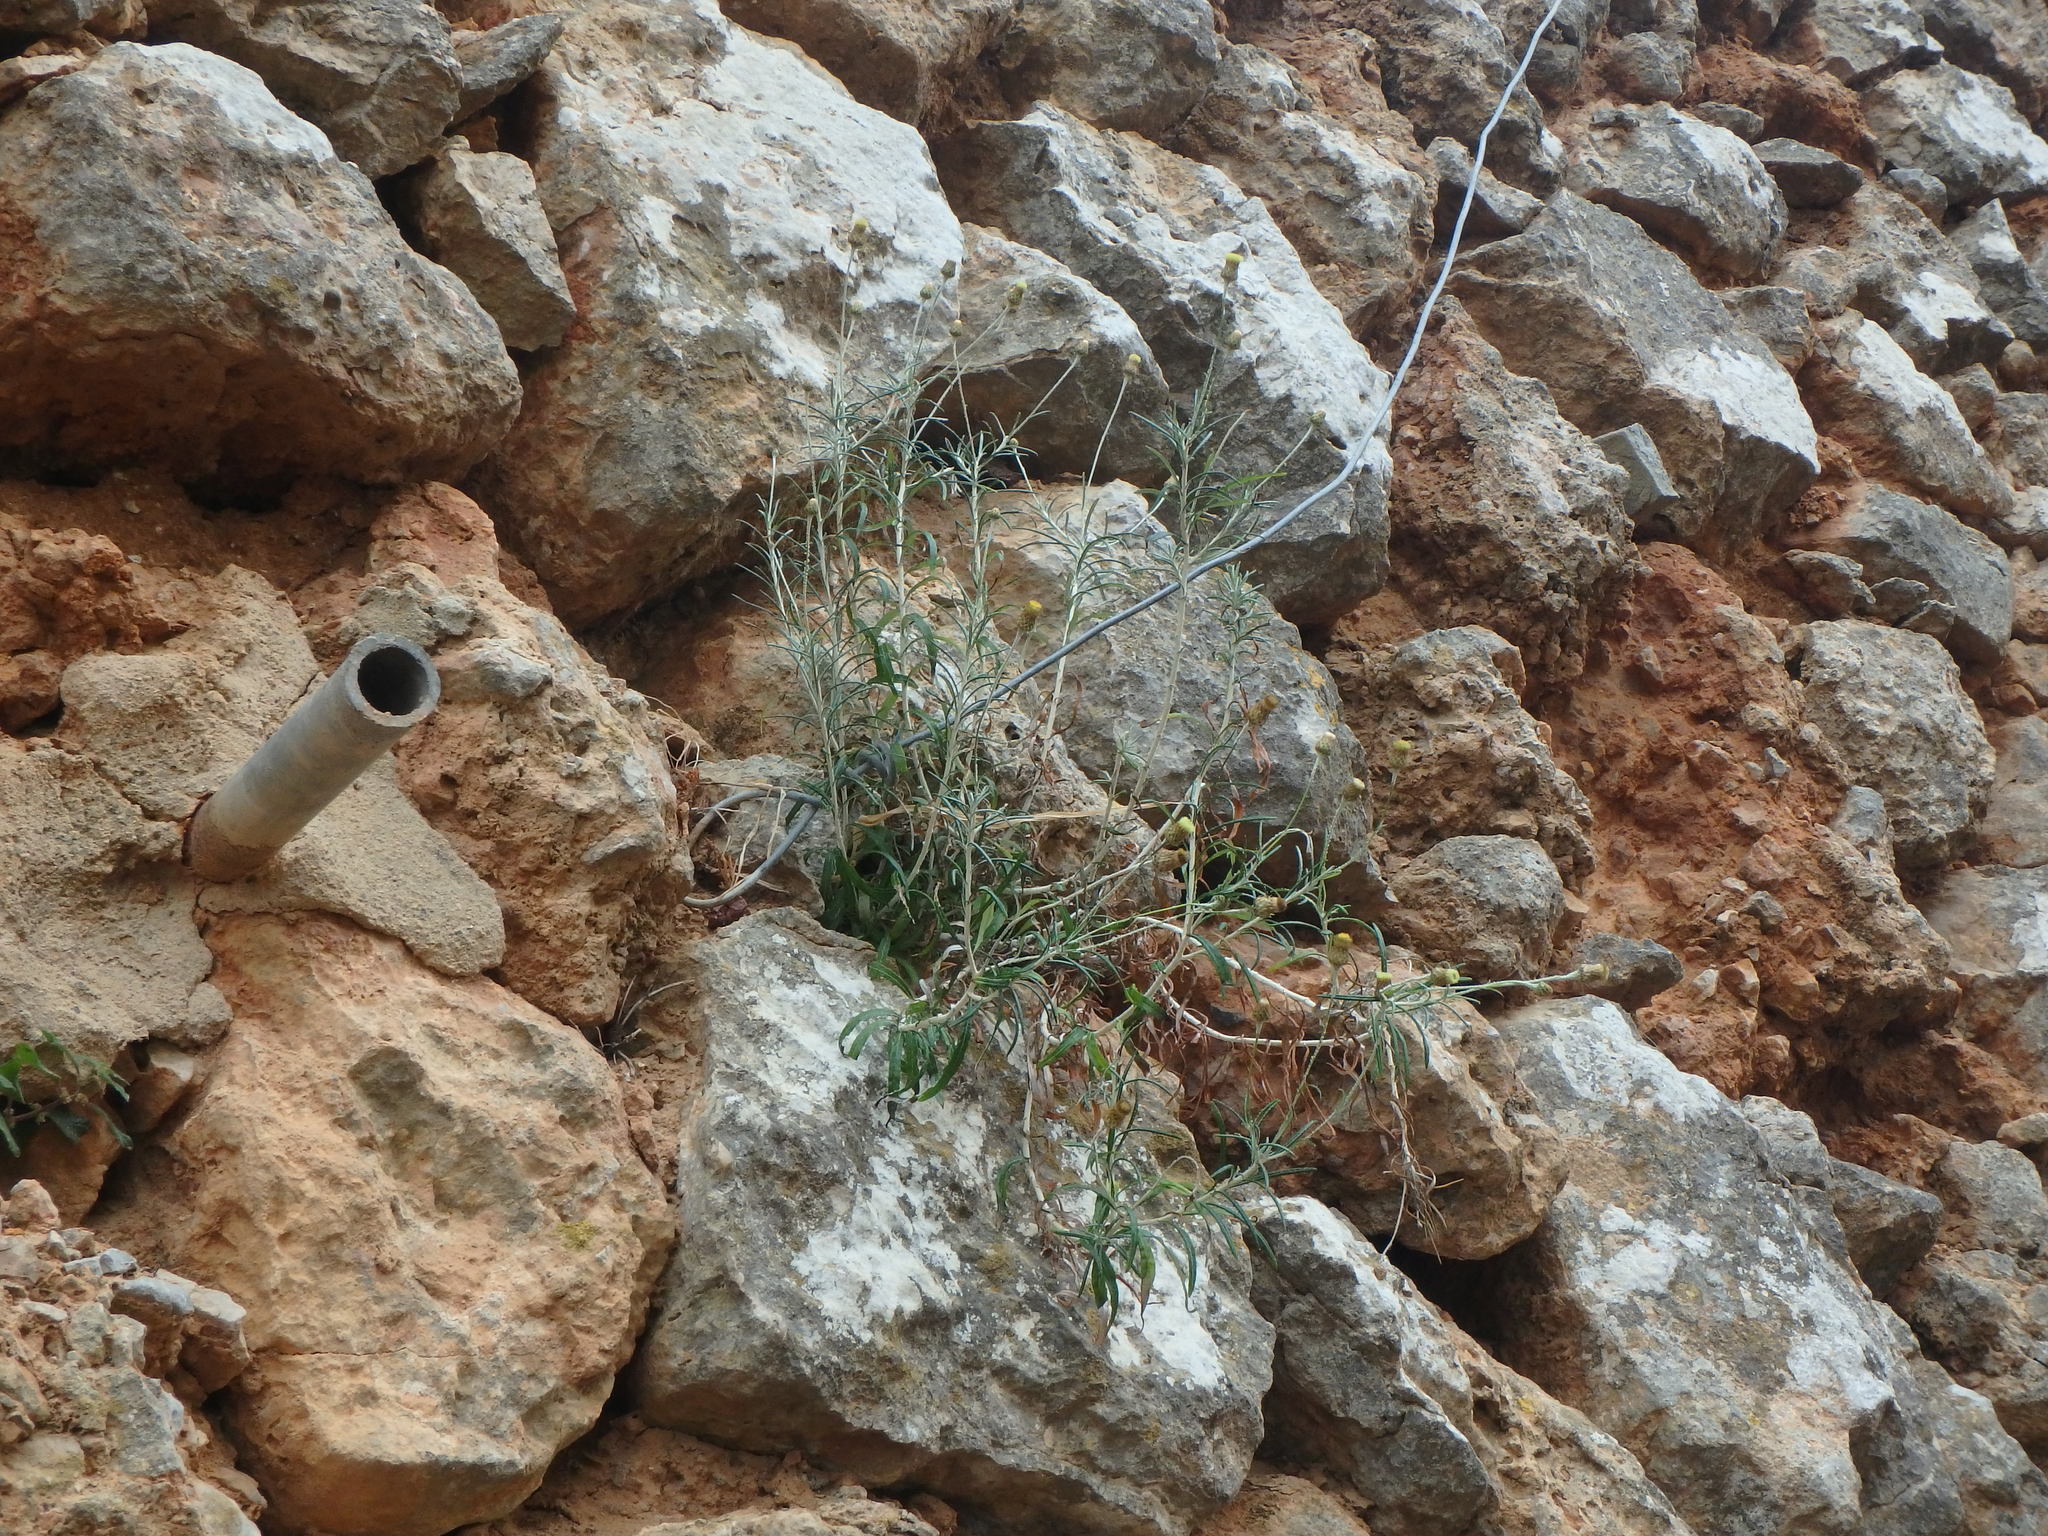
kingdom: Plantae
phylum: Tracheophyta
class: Magnoliopsida
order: Asterales
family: Asteraceae
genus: Phagnalon
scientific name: Phagnalon rupestre
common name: Rock phagnalon
